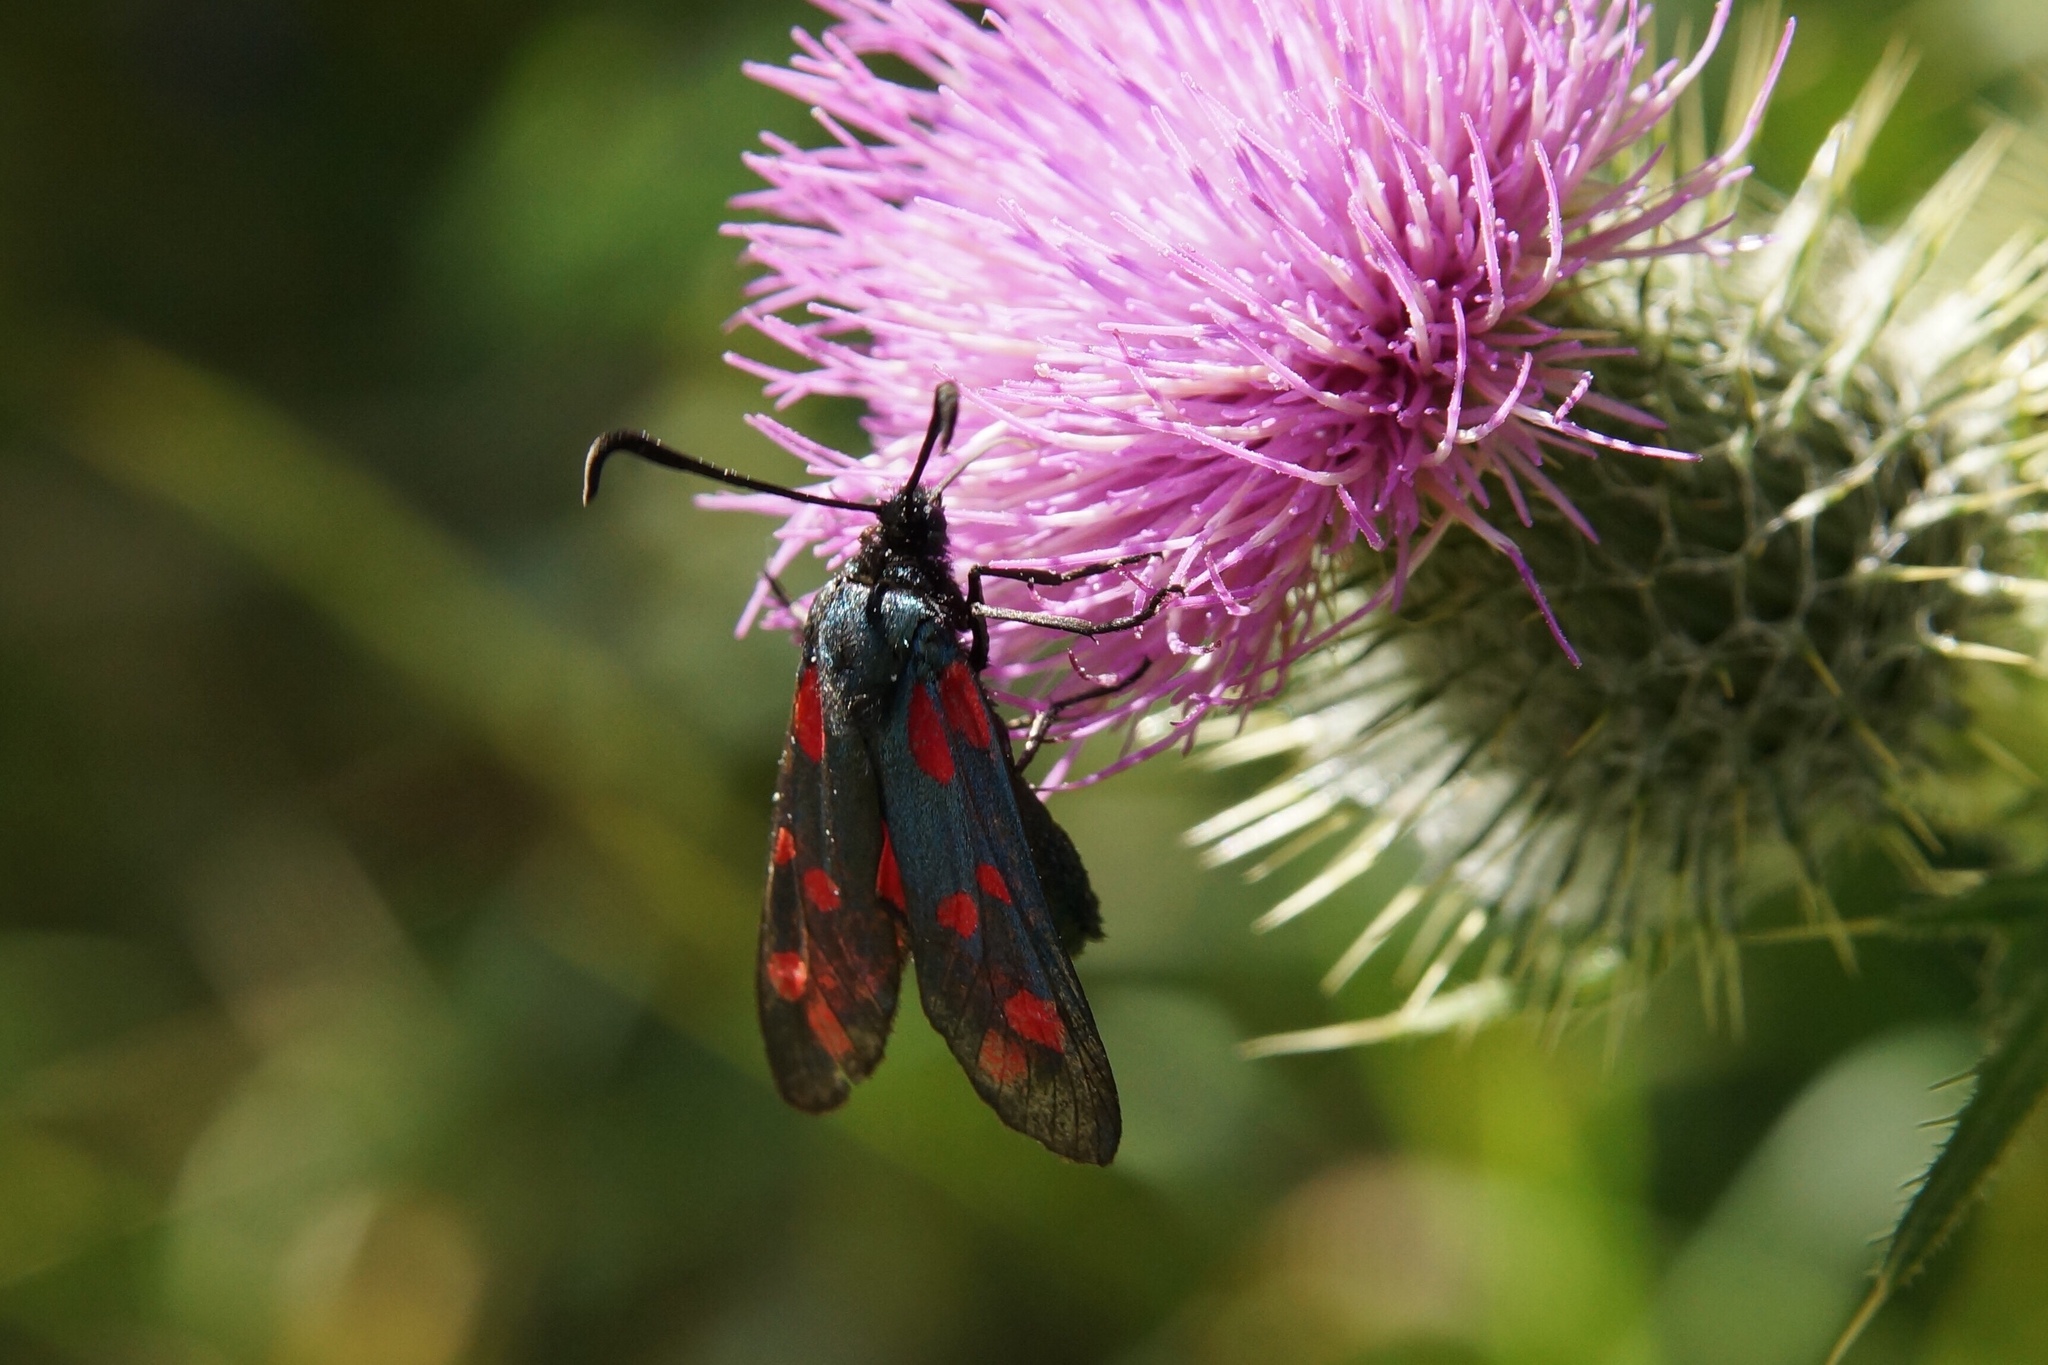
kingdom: Animalia
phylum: Arthropoda
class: Insecta
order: Lepidoptera
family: Zygaenidae
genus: Zygaena
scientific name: Zygaena filipendulae
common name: Six-spot burnet
